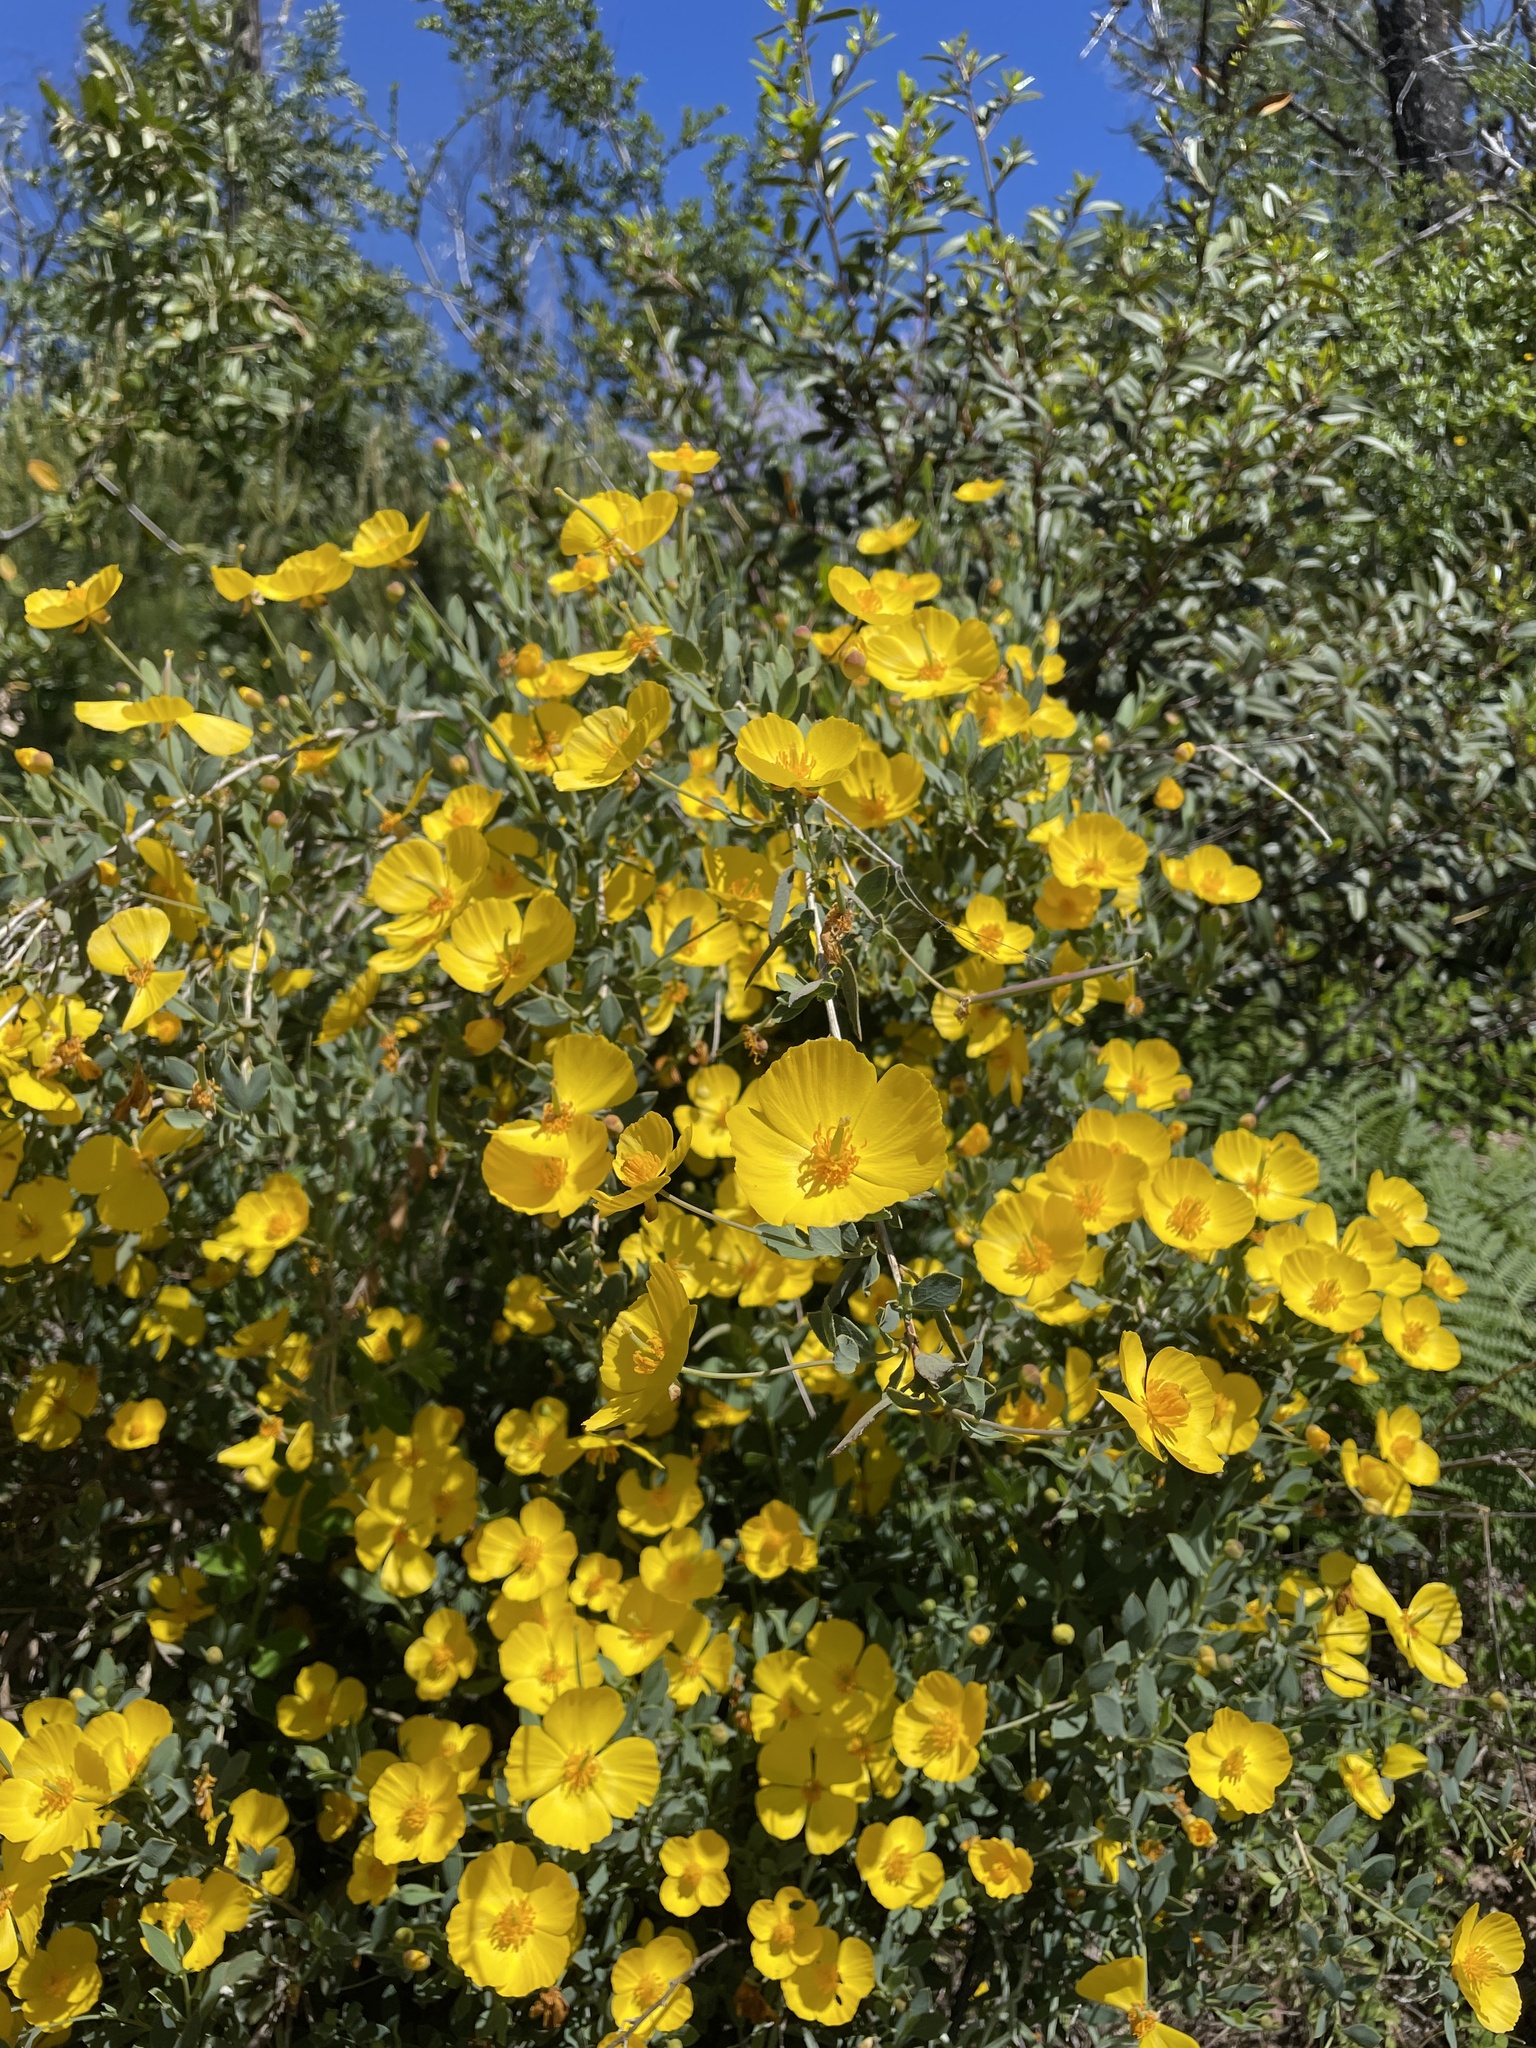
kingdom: Plantae
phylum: Tracheophyta
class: Magnoliopsida
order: Ranunculales
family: Papaveraceae
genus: Dendromecon
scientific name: Dendromecon rigida
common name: Tree poppy
